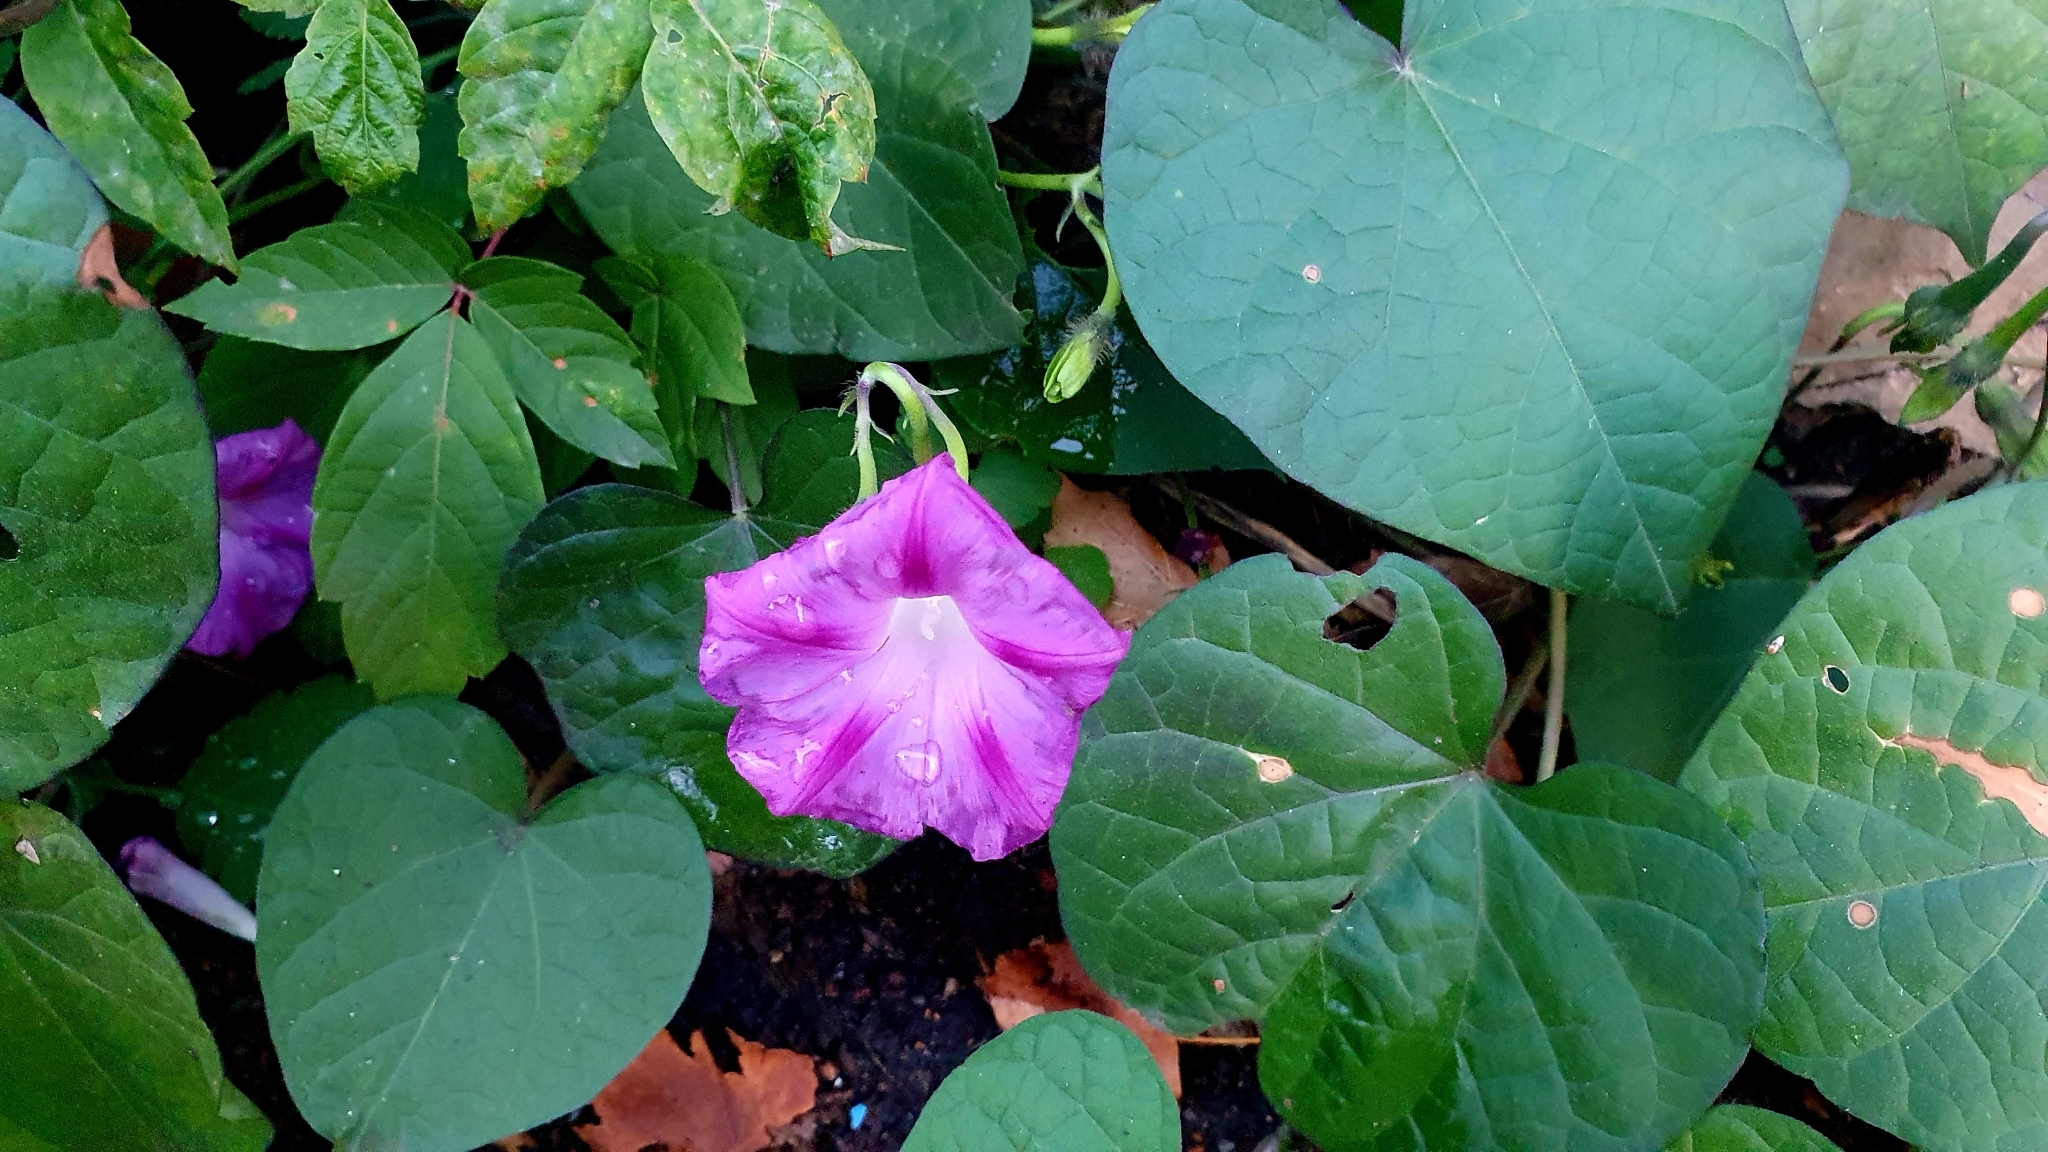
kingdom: Plantae
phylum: Tracheophyta
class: Magnoliopsida
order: Solanales
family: Convolvulaceae
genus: Ipomoea
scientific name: Ipomoea purpurea
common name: Common morning-glory
